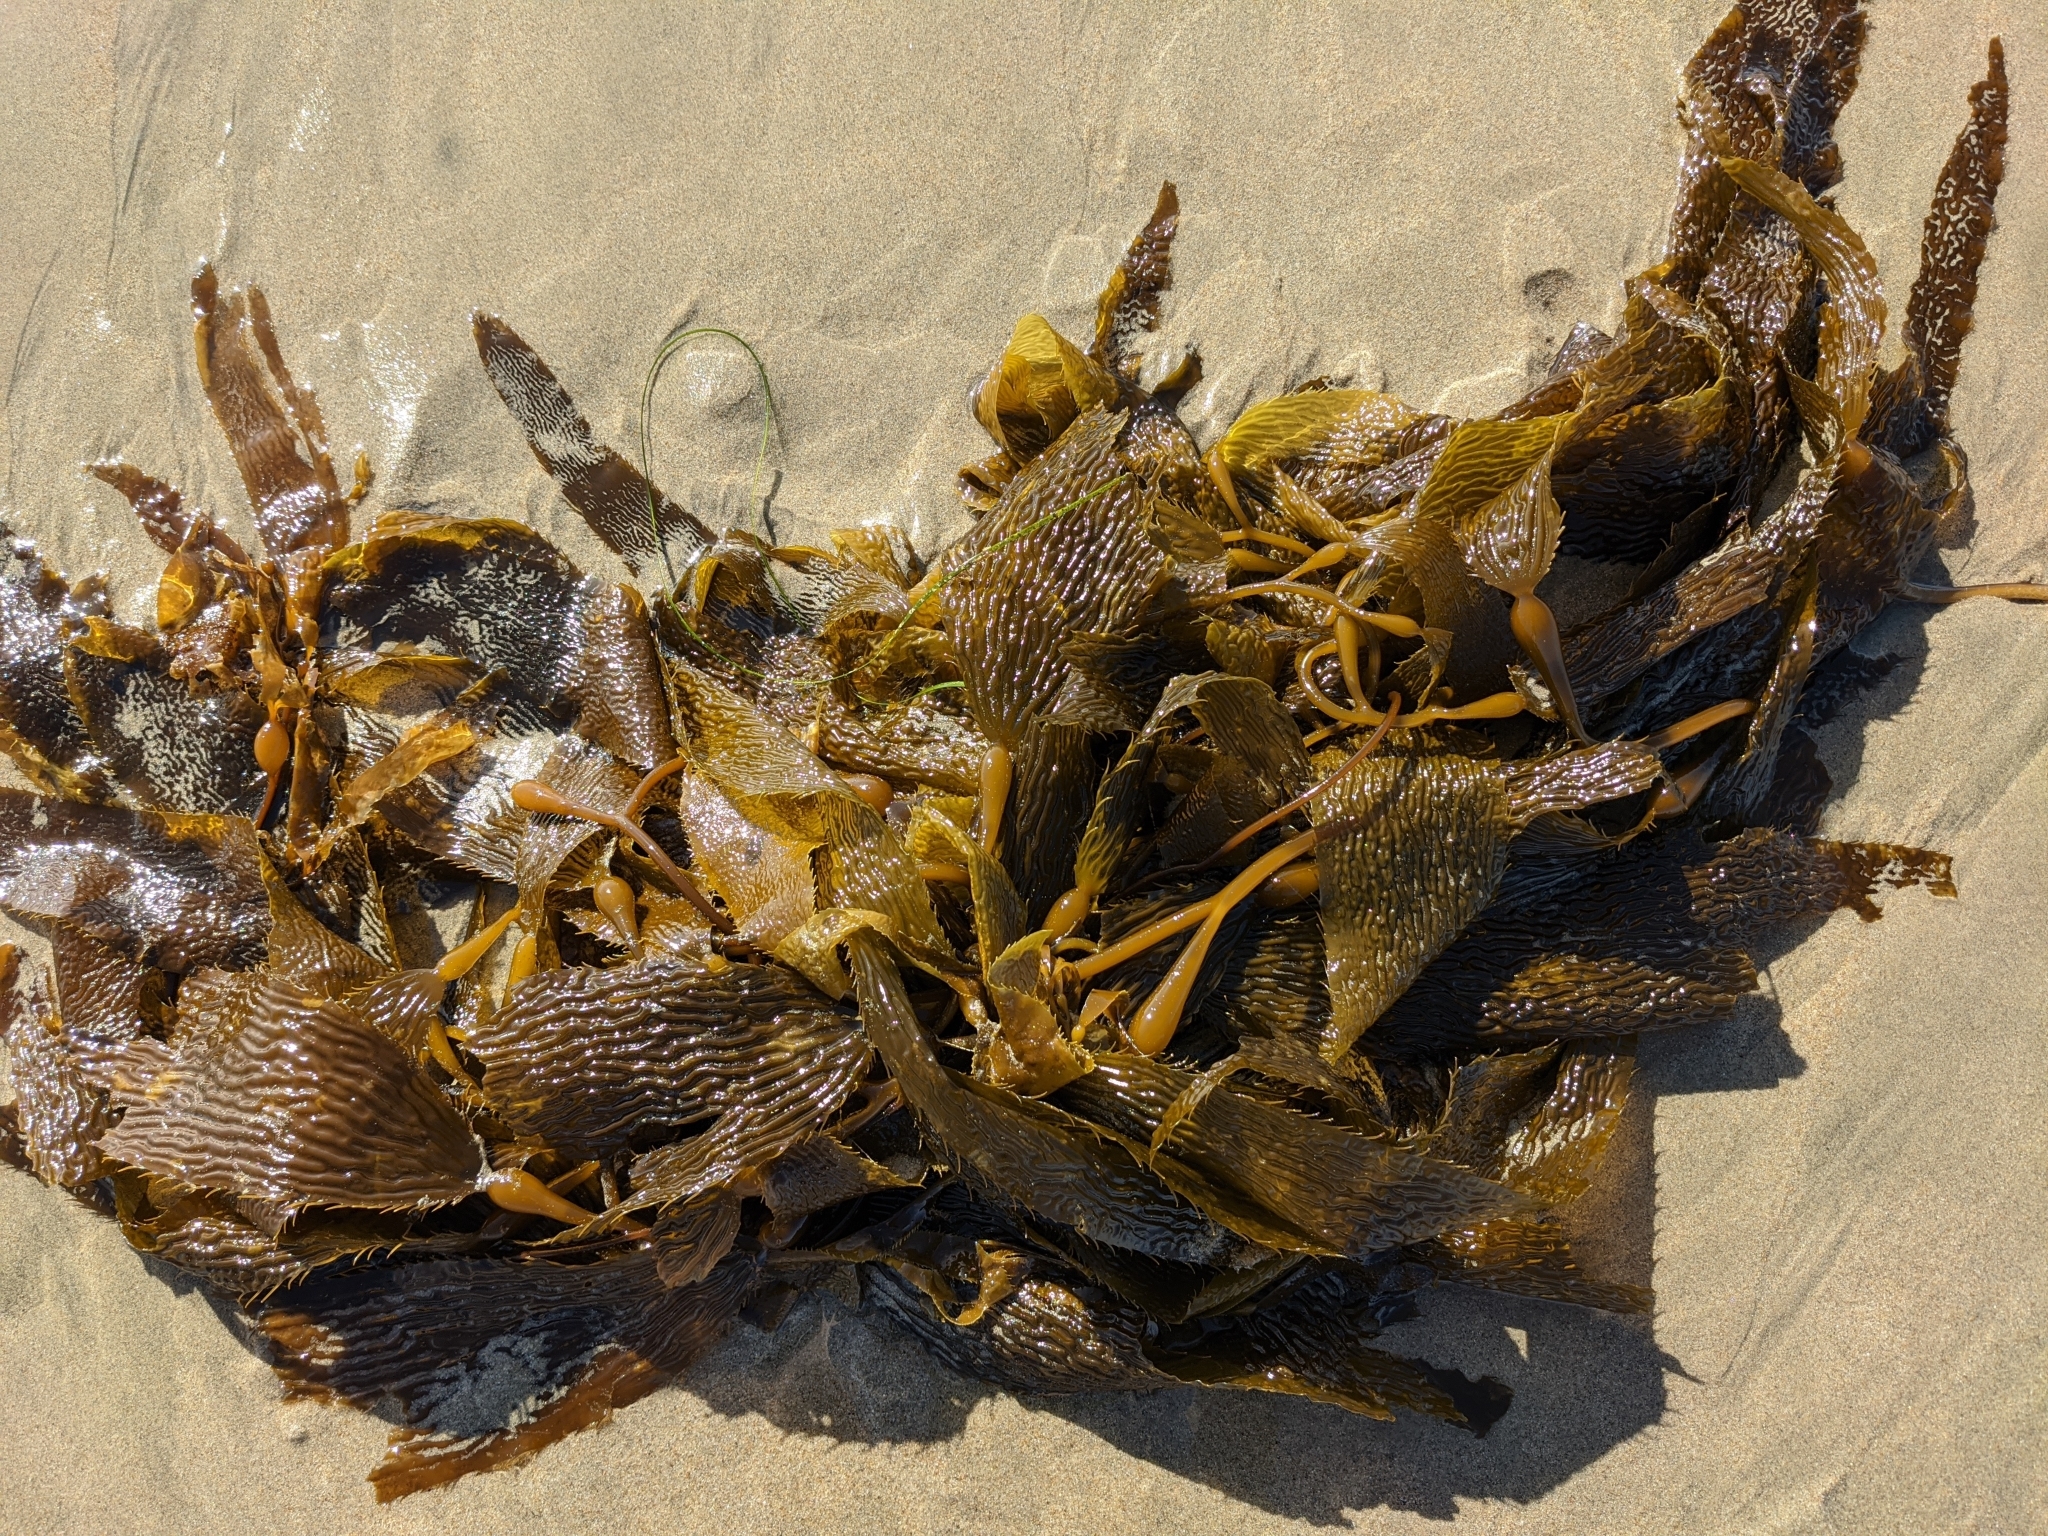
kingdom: Chromista
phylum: Ochrophyta
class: Phaeophyceae
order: Laminariales
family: Laminariaceae
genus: Macrocystis
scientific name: Macrocystis pyrifera
